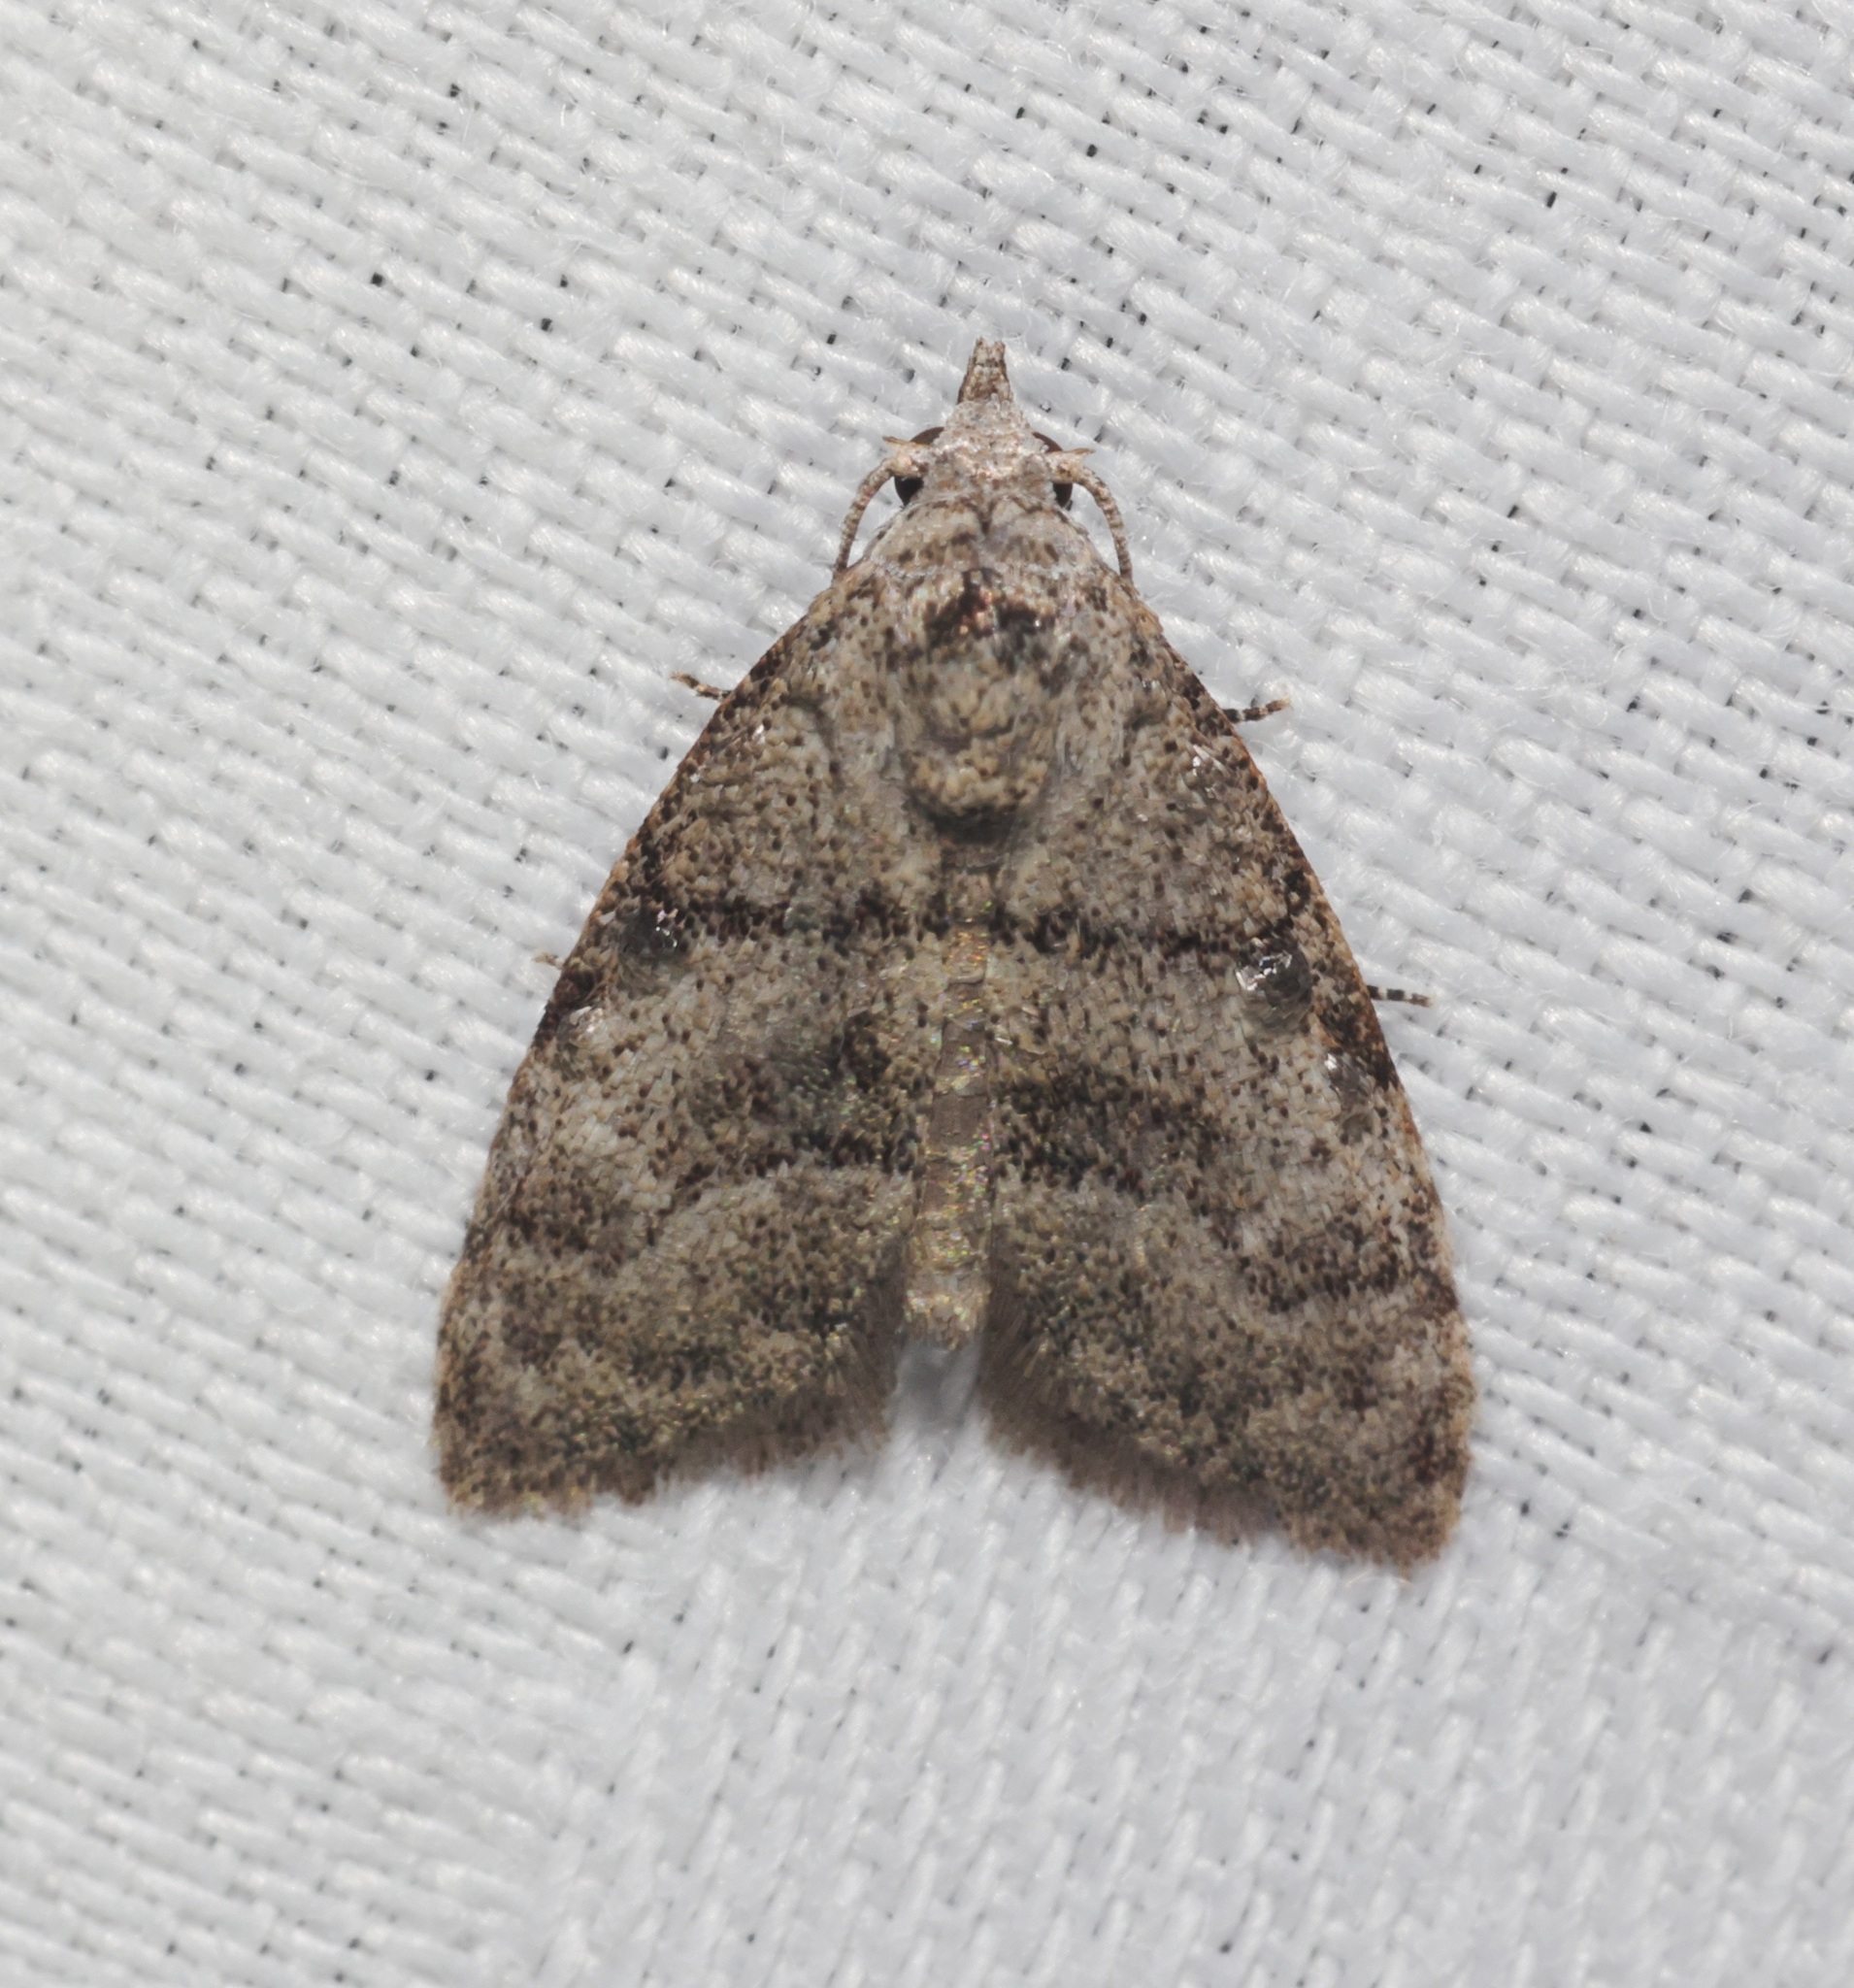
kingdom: Animalia
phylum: Arthropoda
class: Insecta
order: Lepidoptera
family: Nolidae
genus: Inouenola
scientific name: Inouenola pallescens
